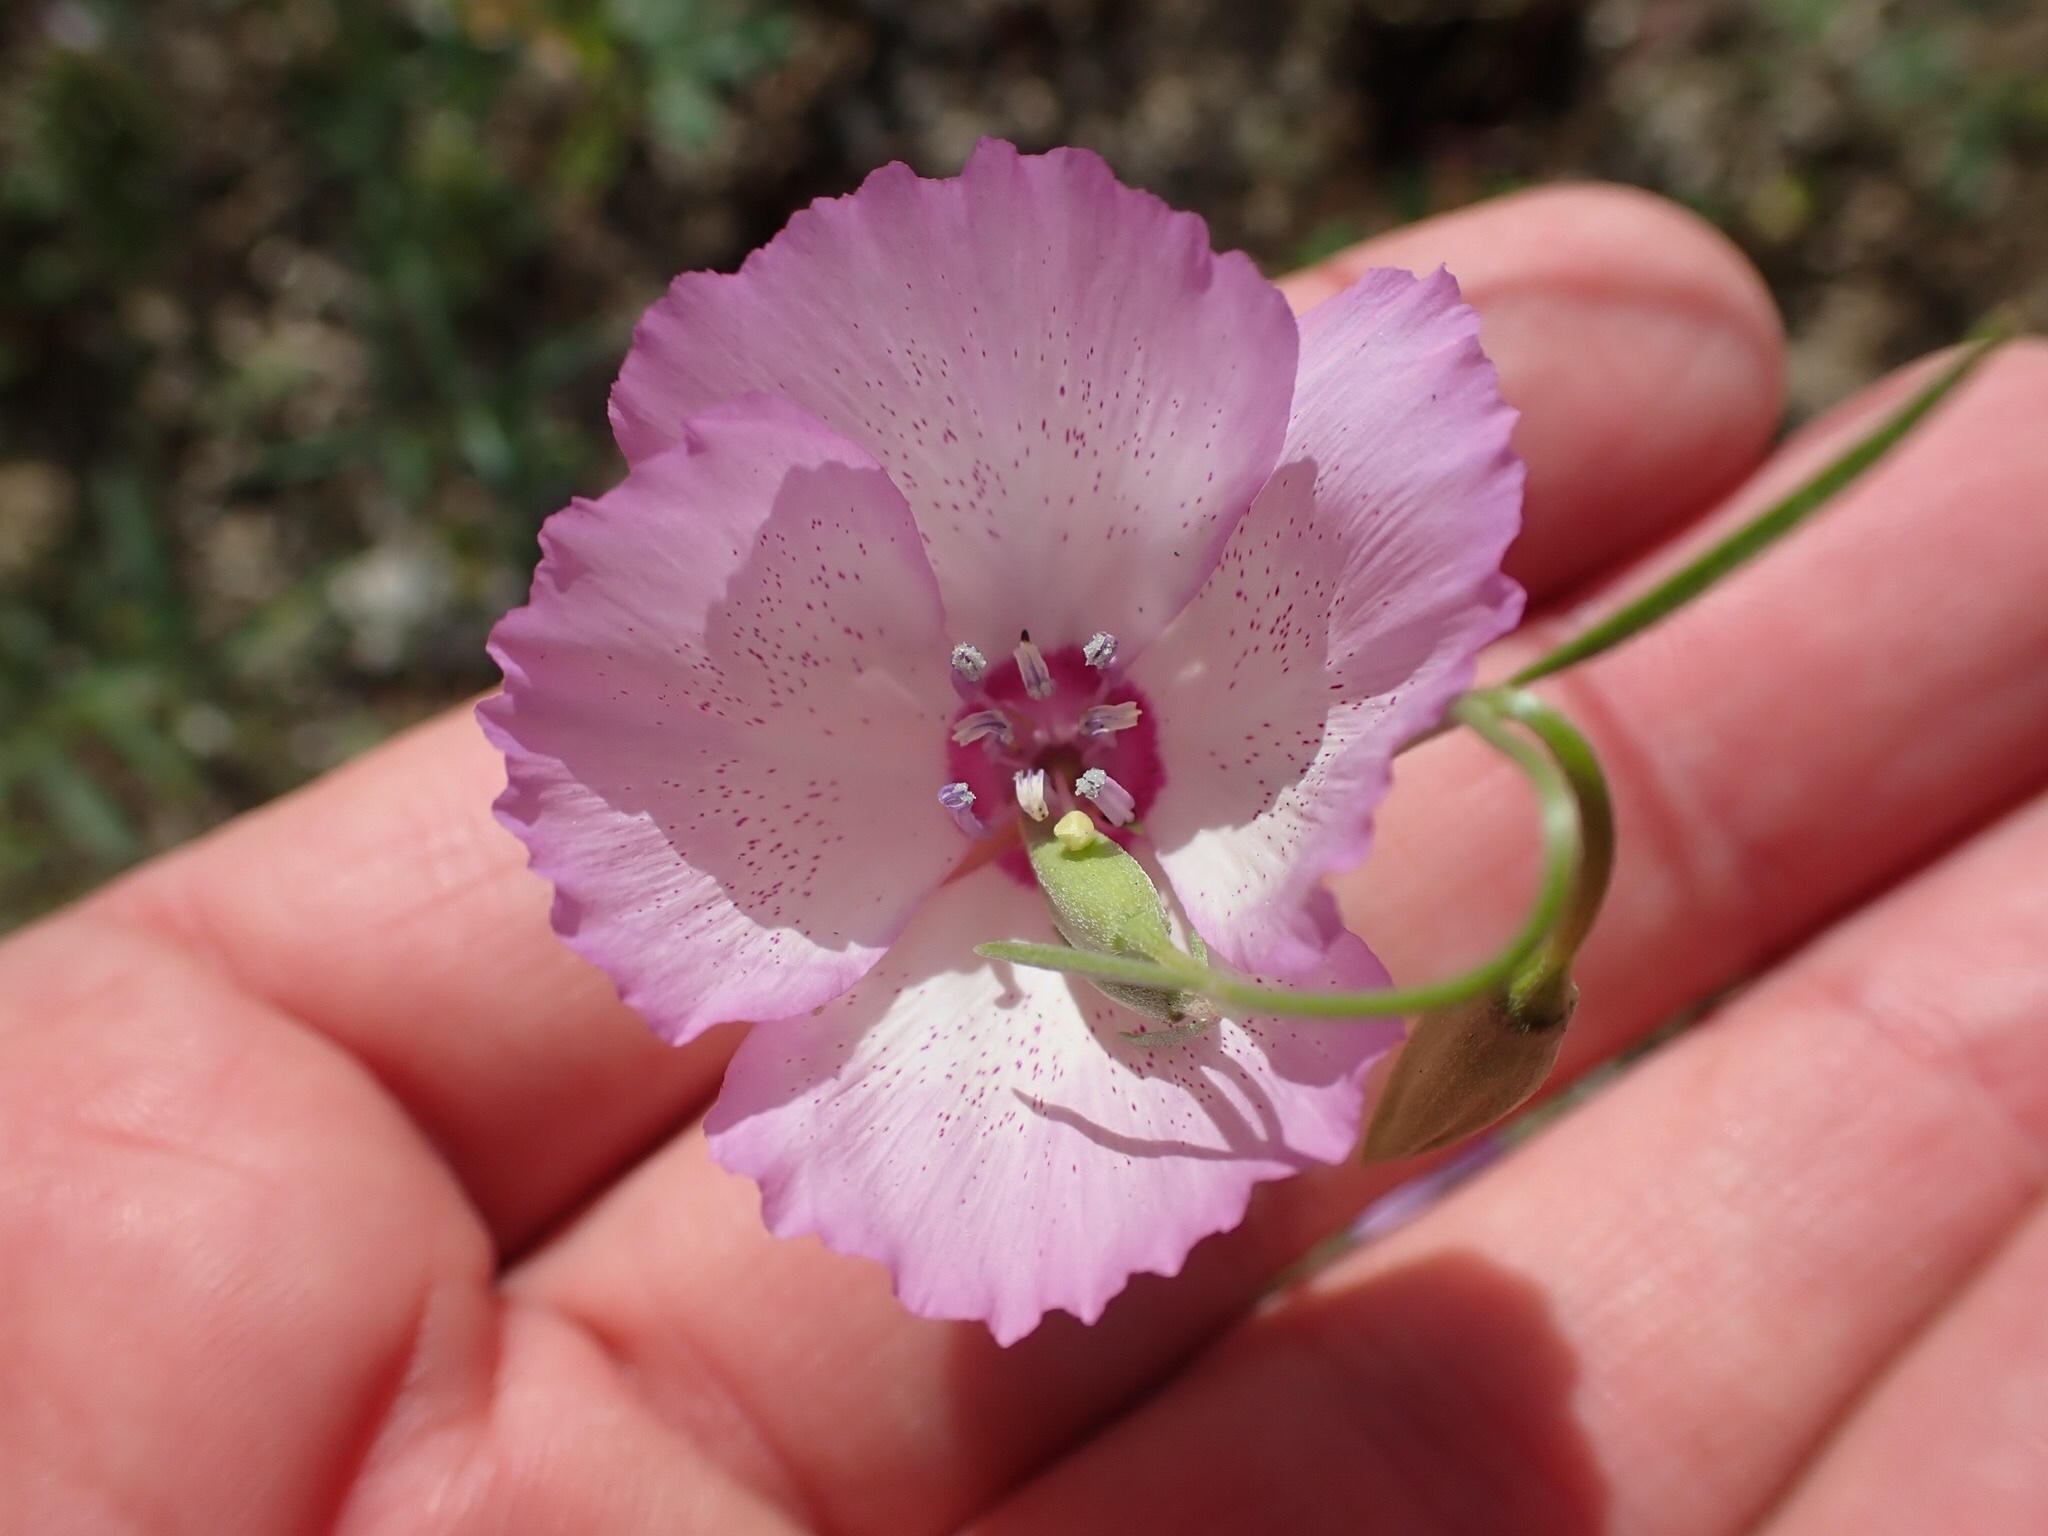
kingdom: Plantae
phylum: Tracheophyta
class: Magnoliopsida
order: Myrtales
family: Onagraceae
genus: Clarkia
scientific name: Clarkia cylindrica
